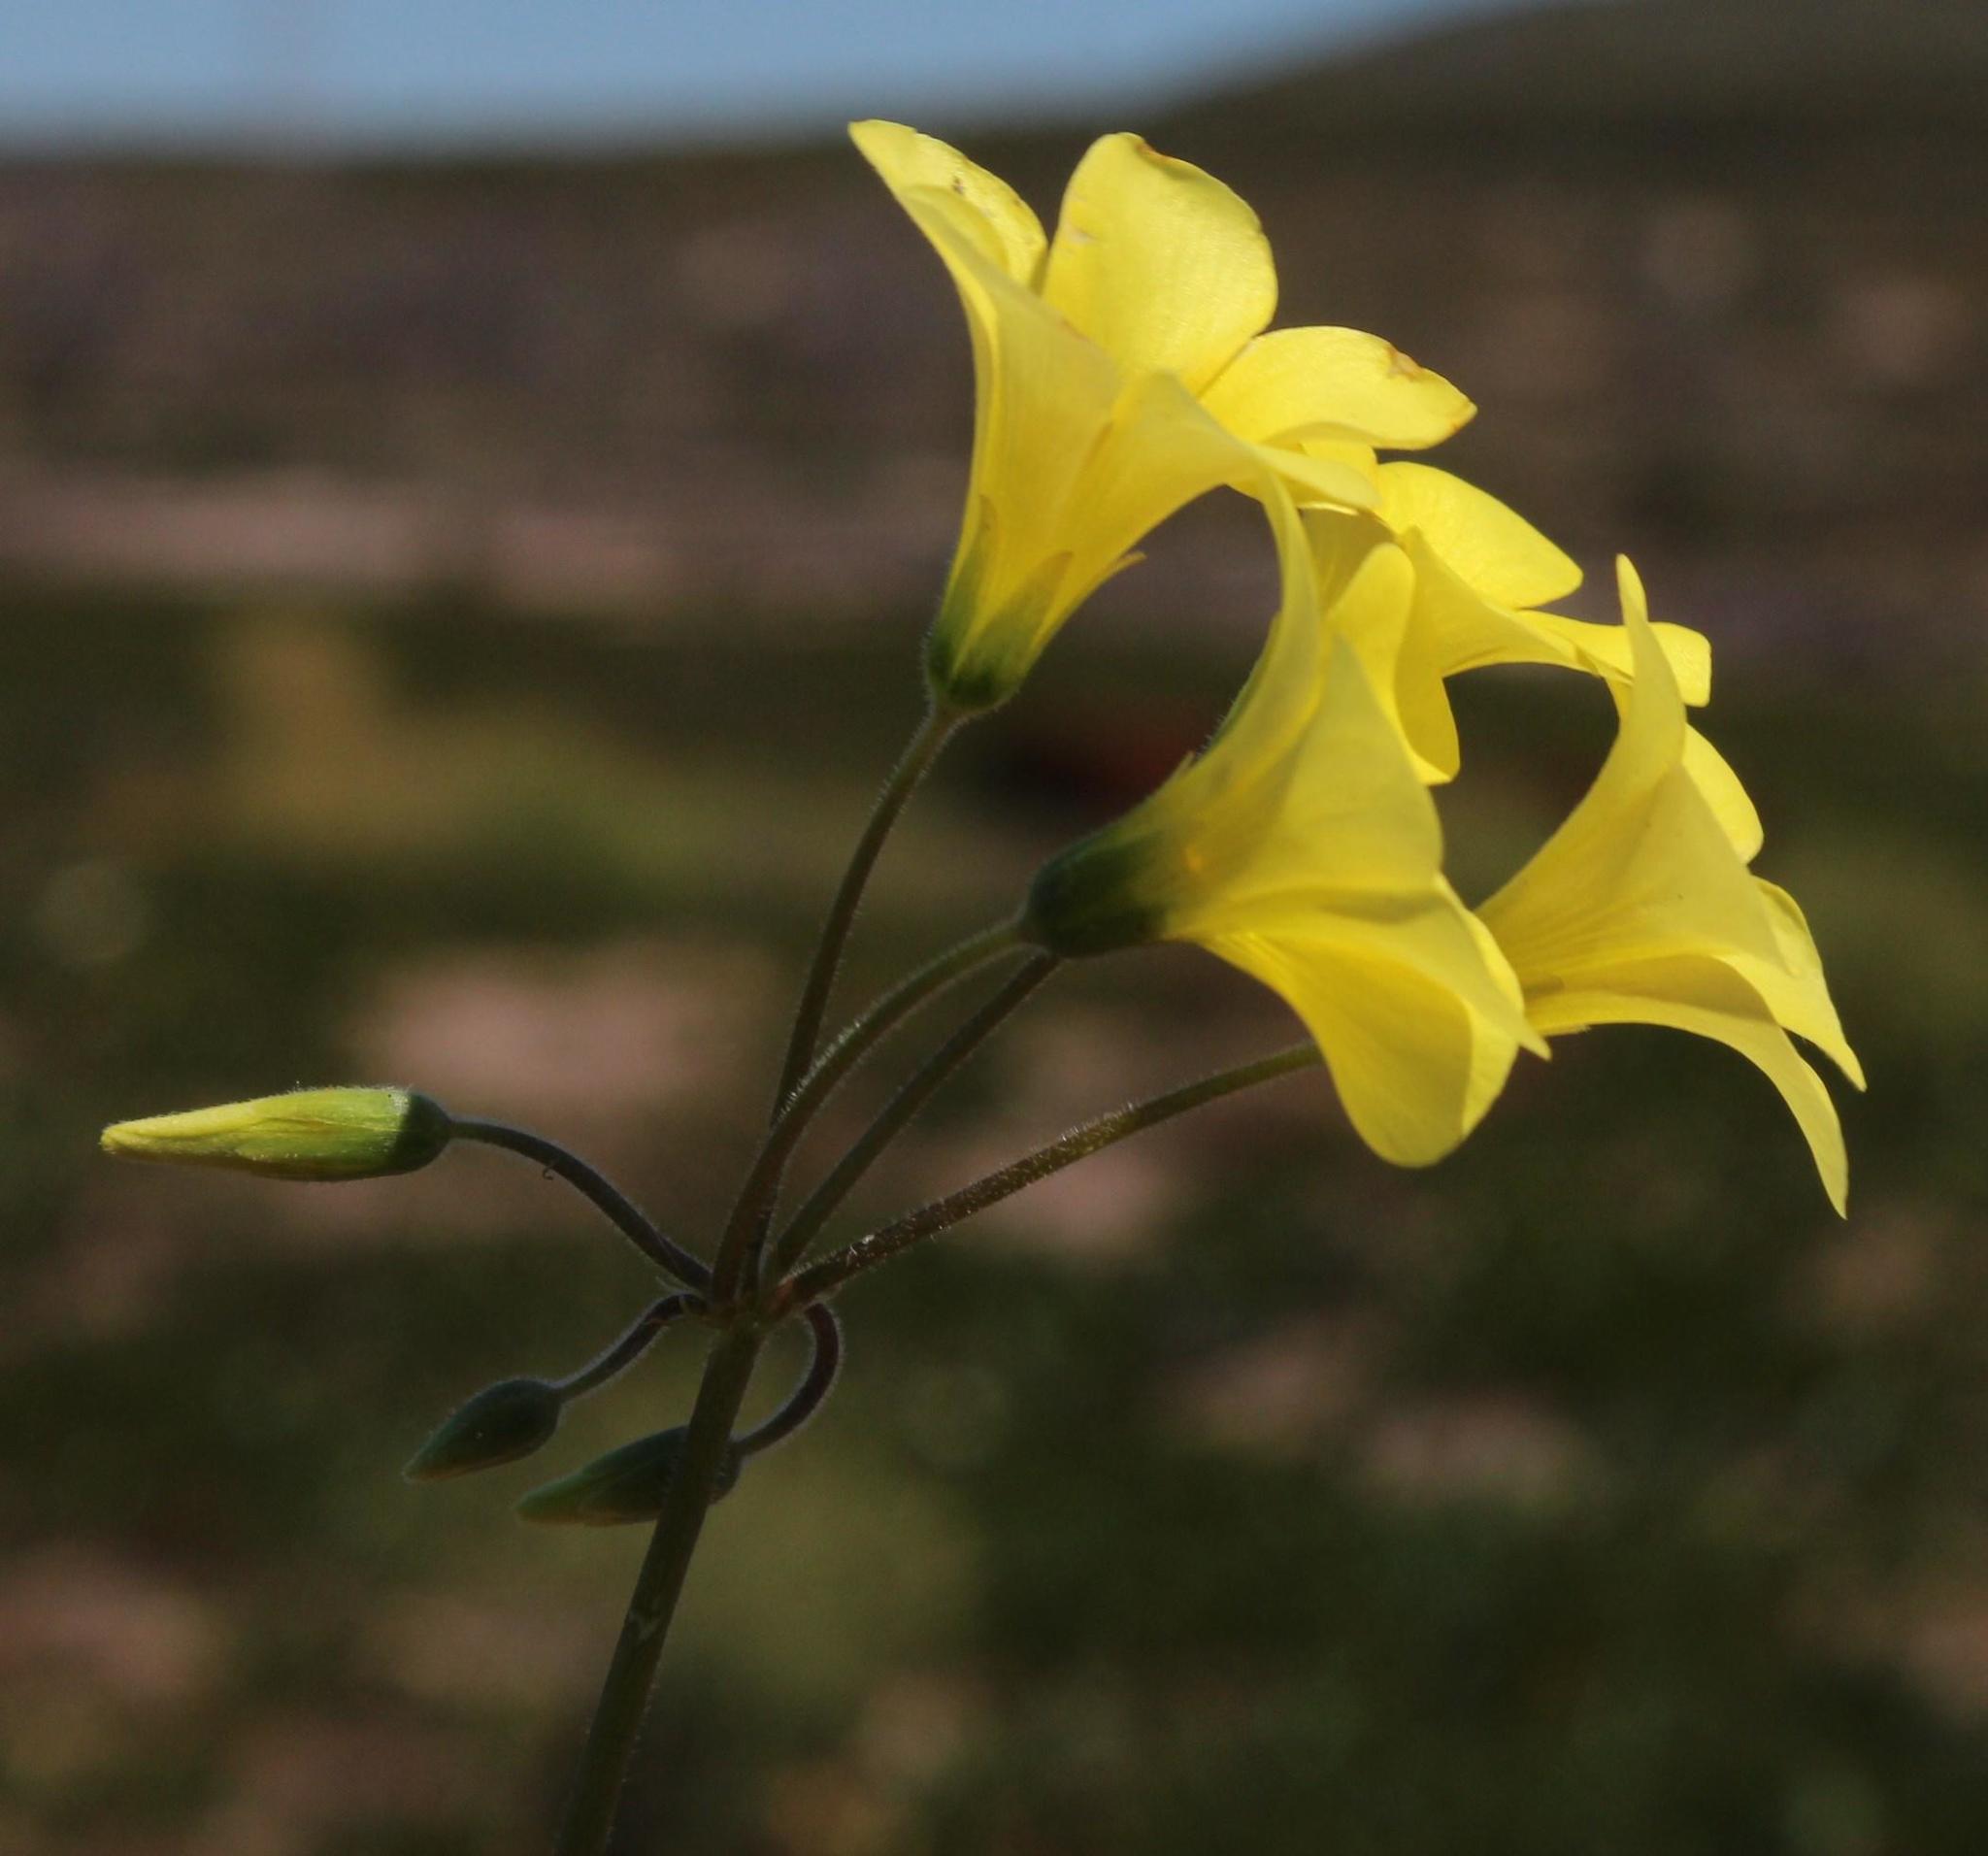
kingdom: Plantae
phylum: Tracheophyta
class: Magnoliopsida
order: Oxalidales
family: Oxalidaceae
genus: Oxalis
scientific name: Oxalis pes-caprae
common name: Bermuda-buttercup
